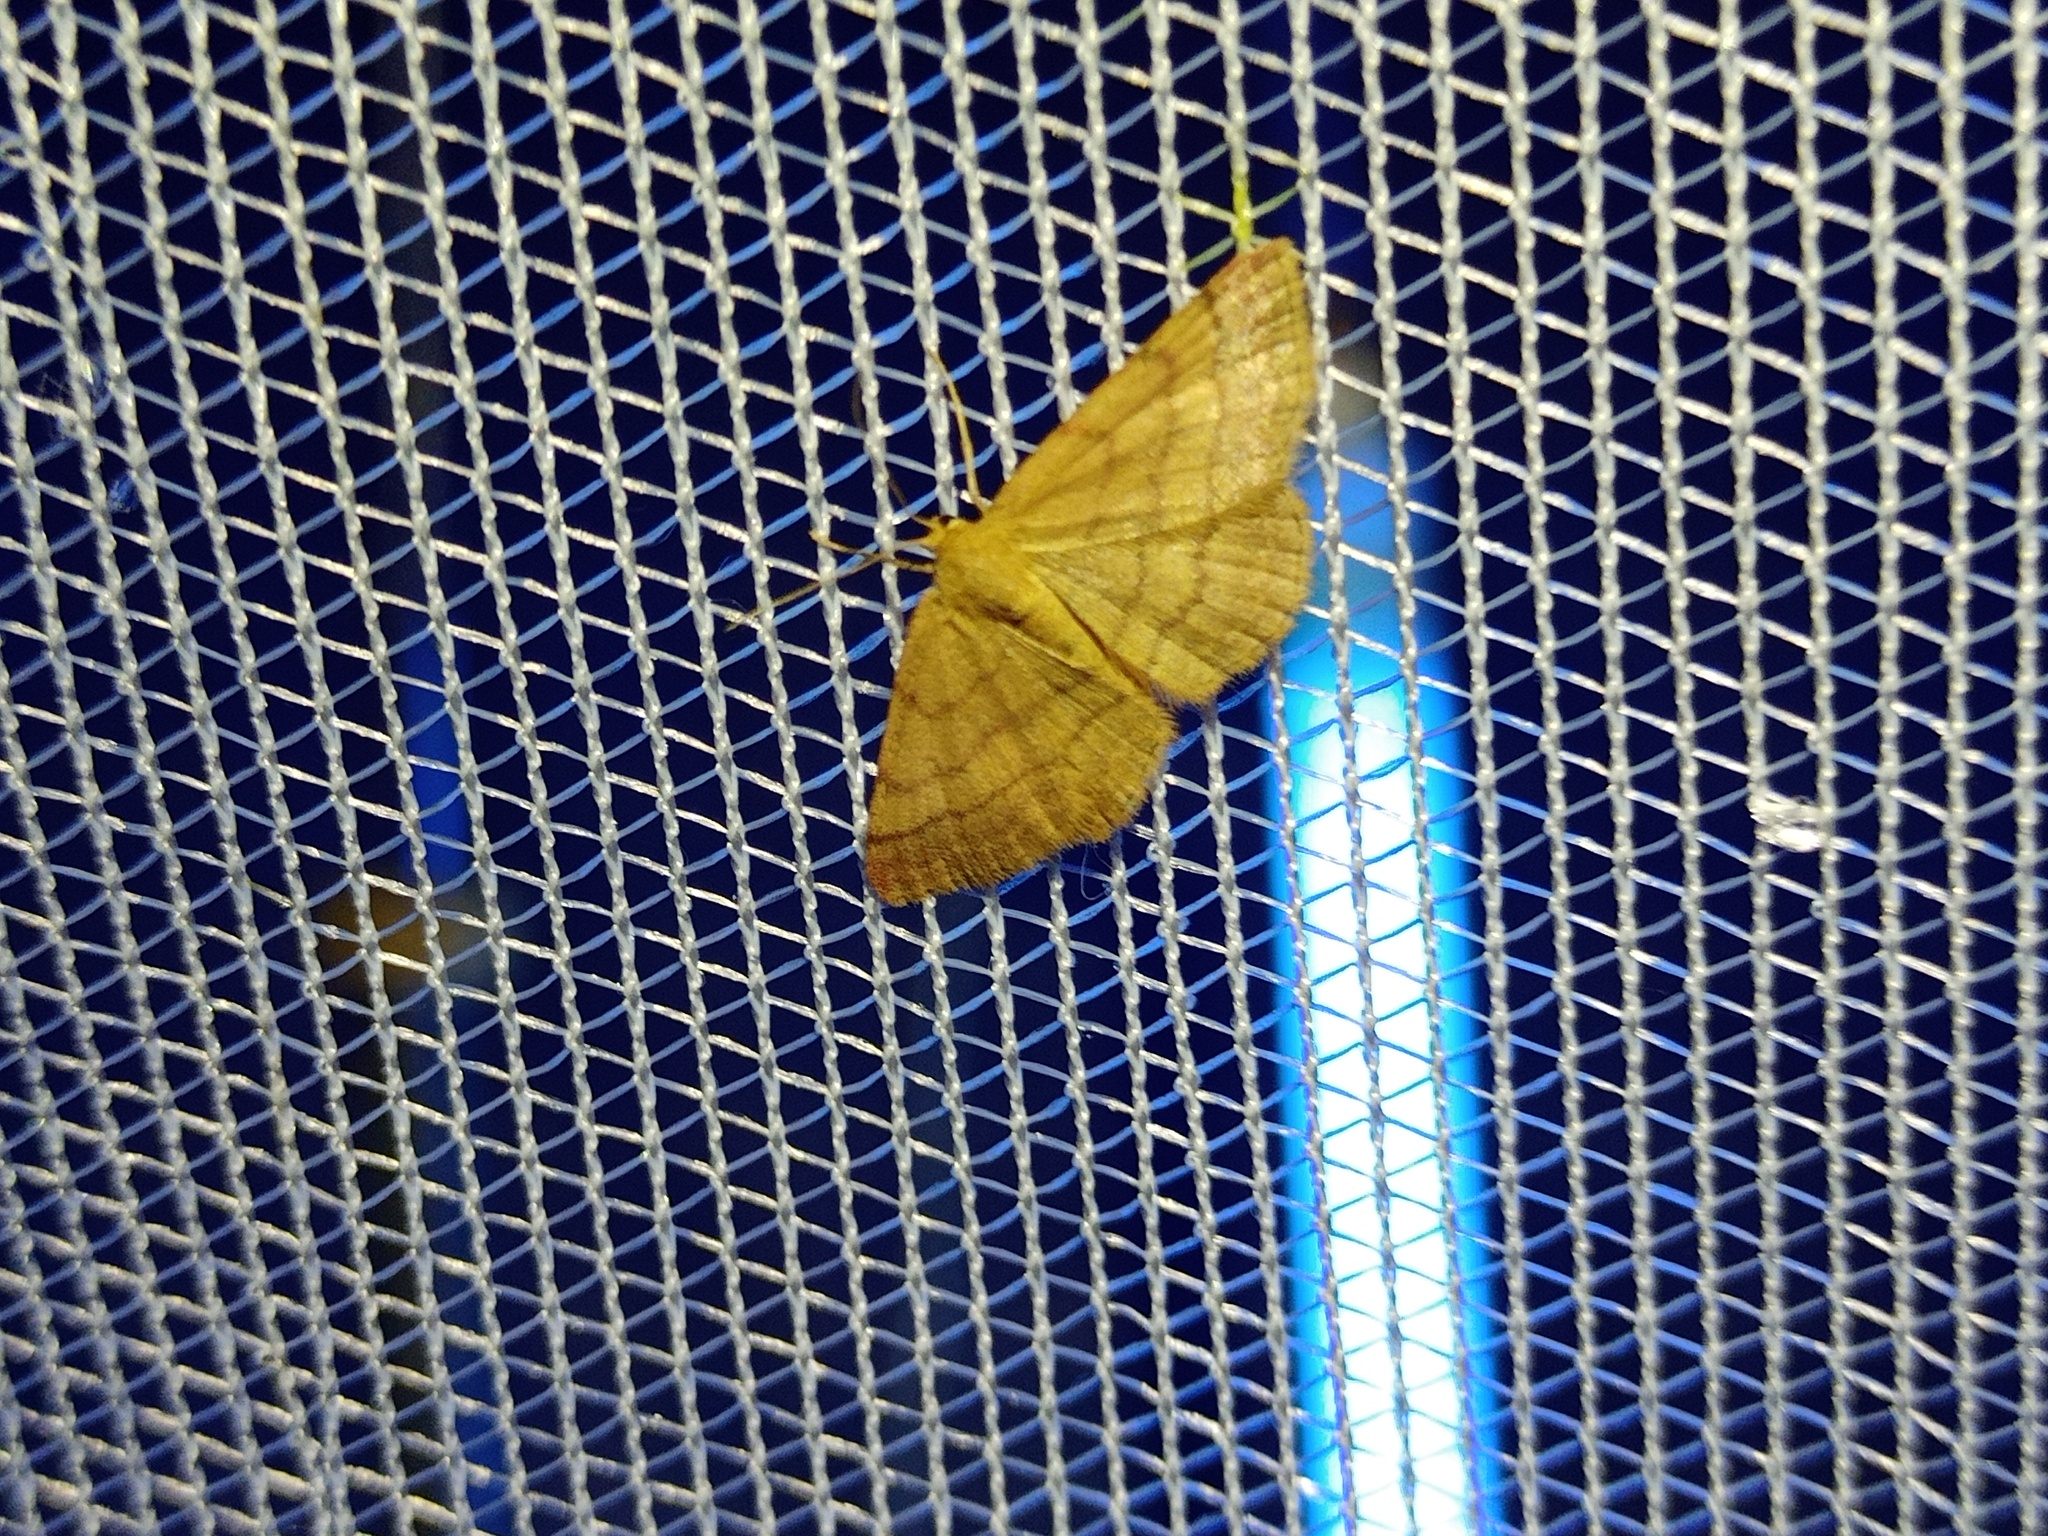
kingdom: Animalia
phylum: Arthropoda
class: Insecta
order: Lepidoptera
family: Geometridae
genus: Scopula
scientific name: Scopula rubiginata
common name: Tawny wave
